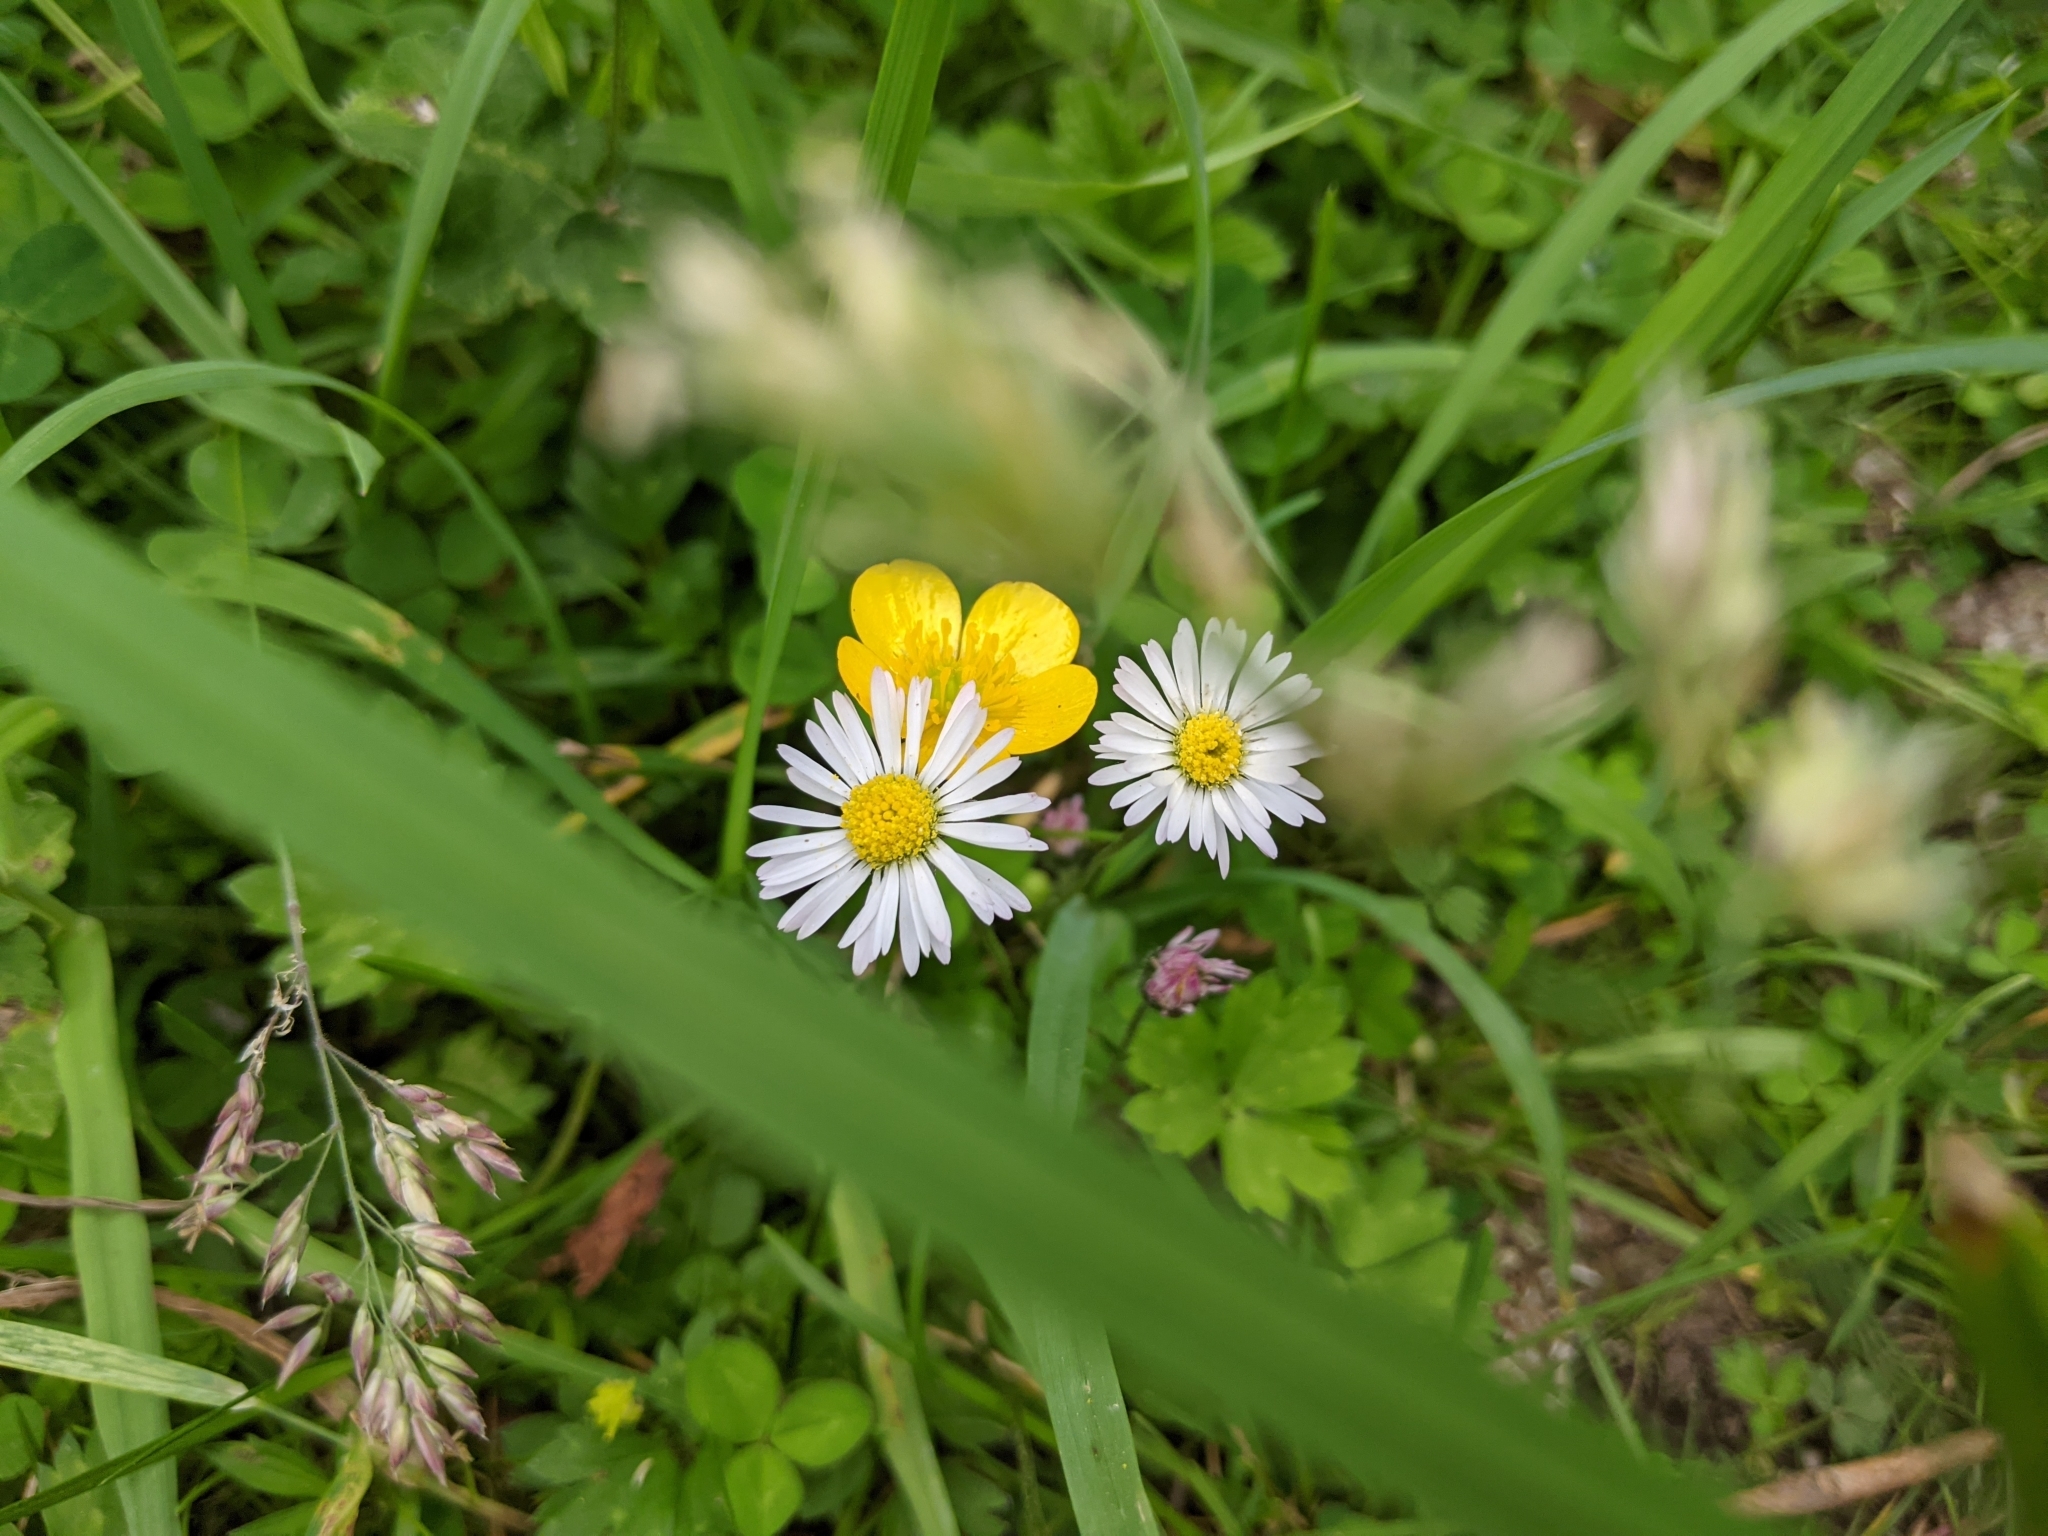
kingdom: Plantae
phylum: Tracheophyta
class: Magnoliopsida
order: Asterales
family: Asteraceae
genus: Bellis
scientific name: Bellis perennis
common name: Lawndaisy
